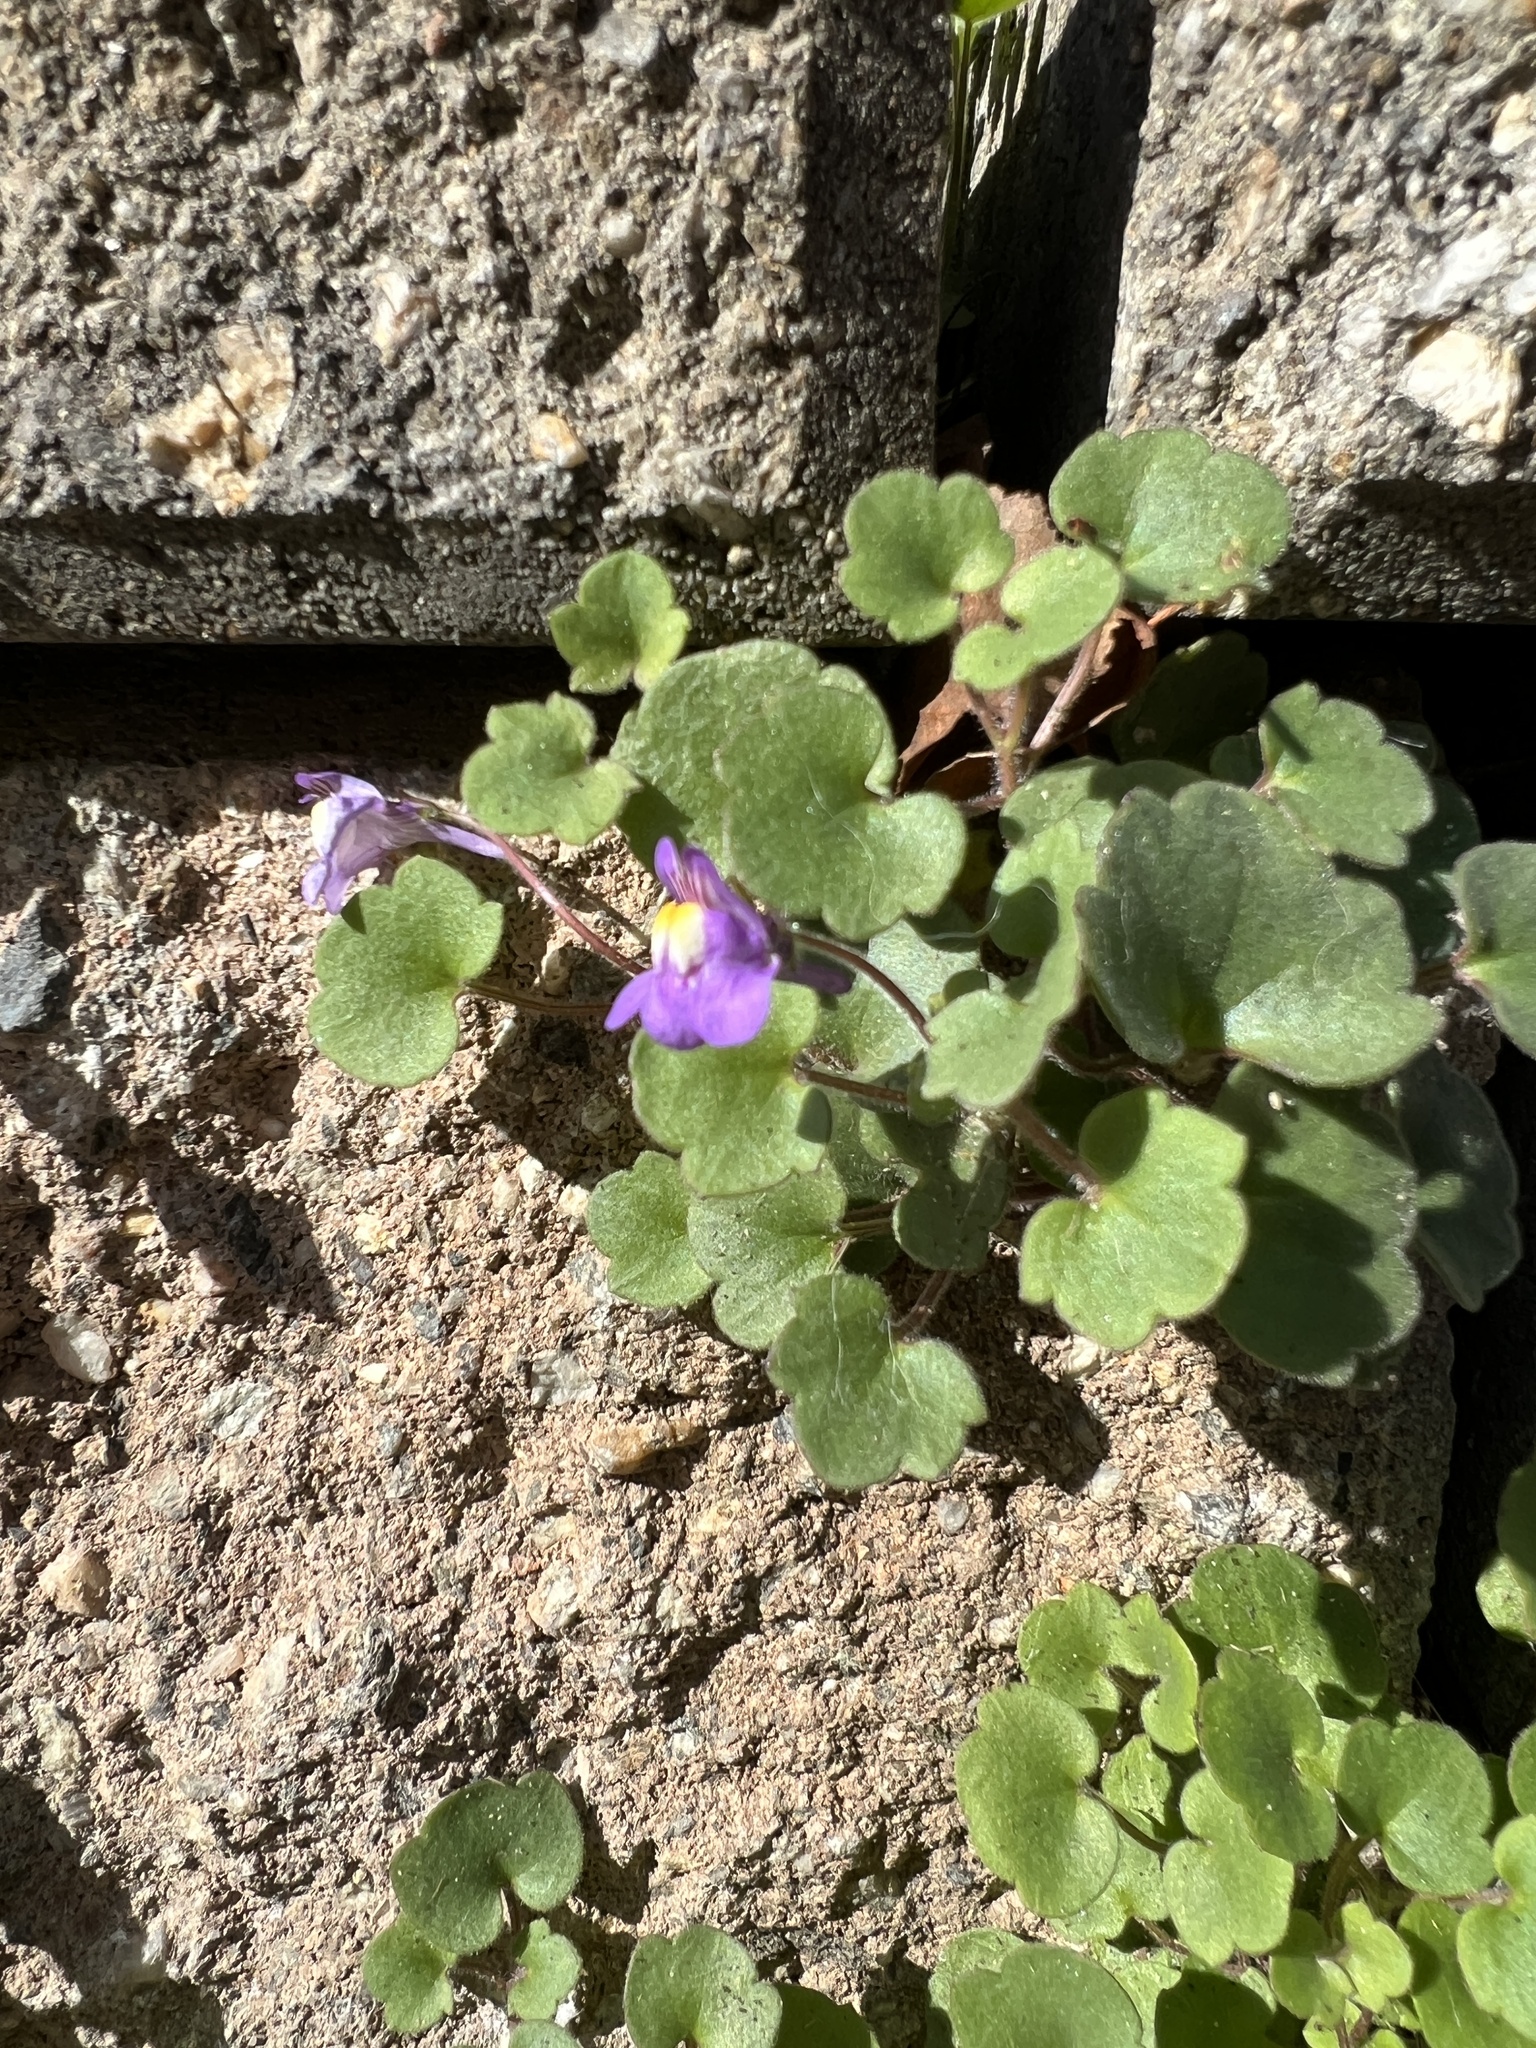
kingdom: Plantae
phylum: Tracheophyta
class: Magnoliopsida
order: Lamiales
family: Plantaginaceae
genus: Cymbalaria
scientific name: Cymbalaria muralis
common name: Ivy-leaved toadflax
